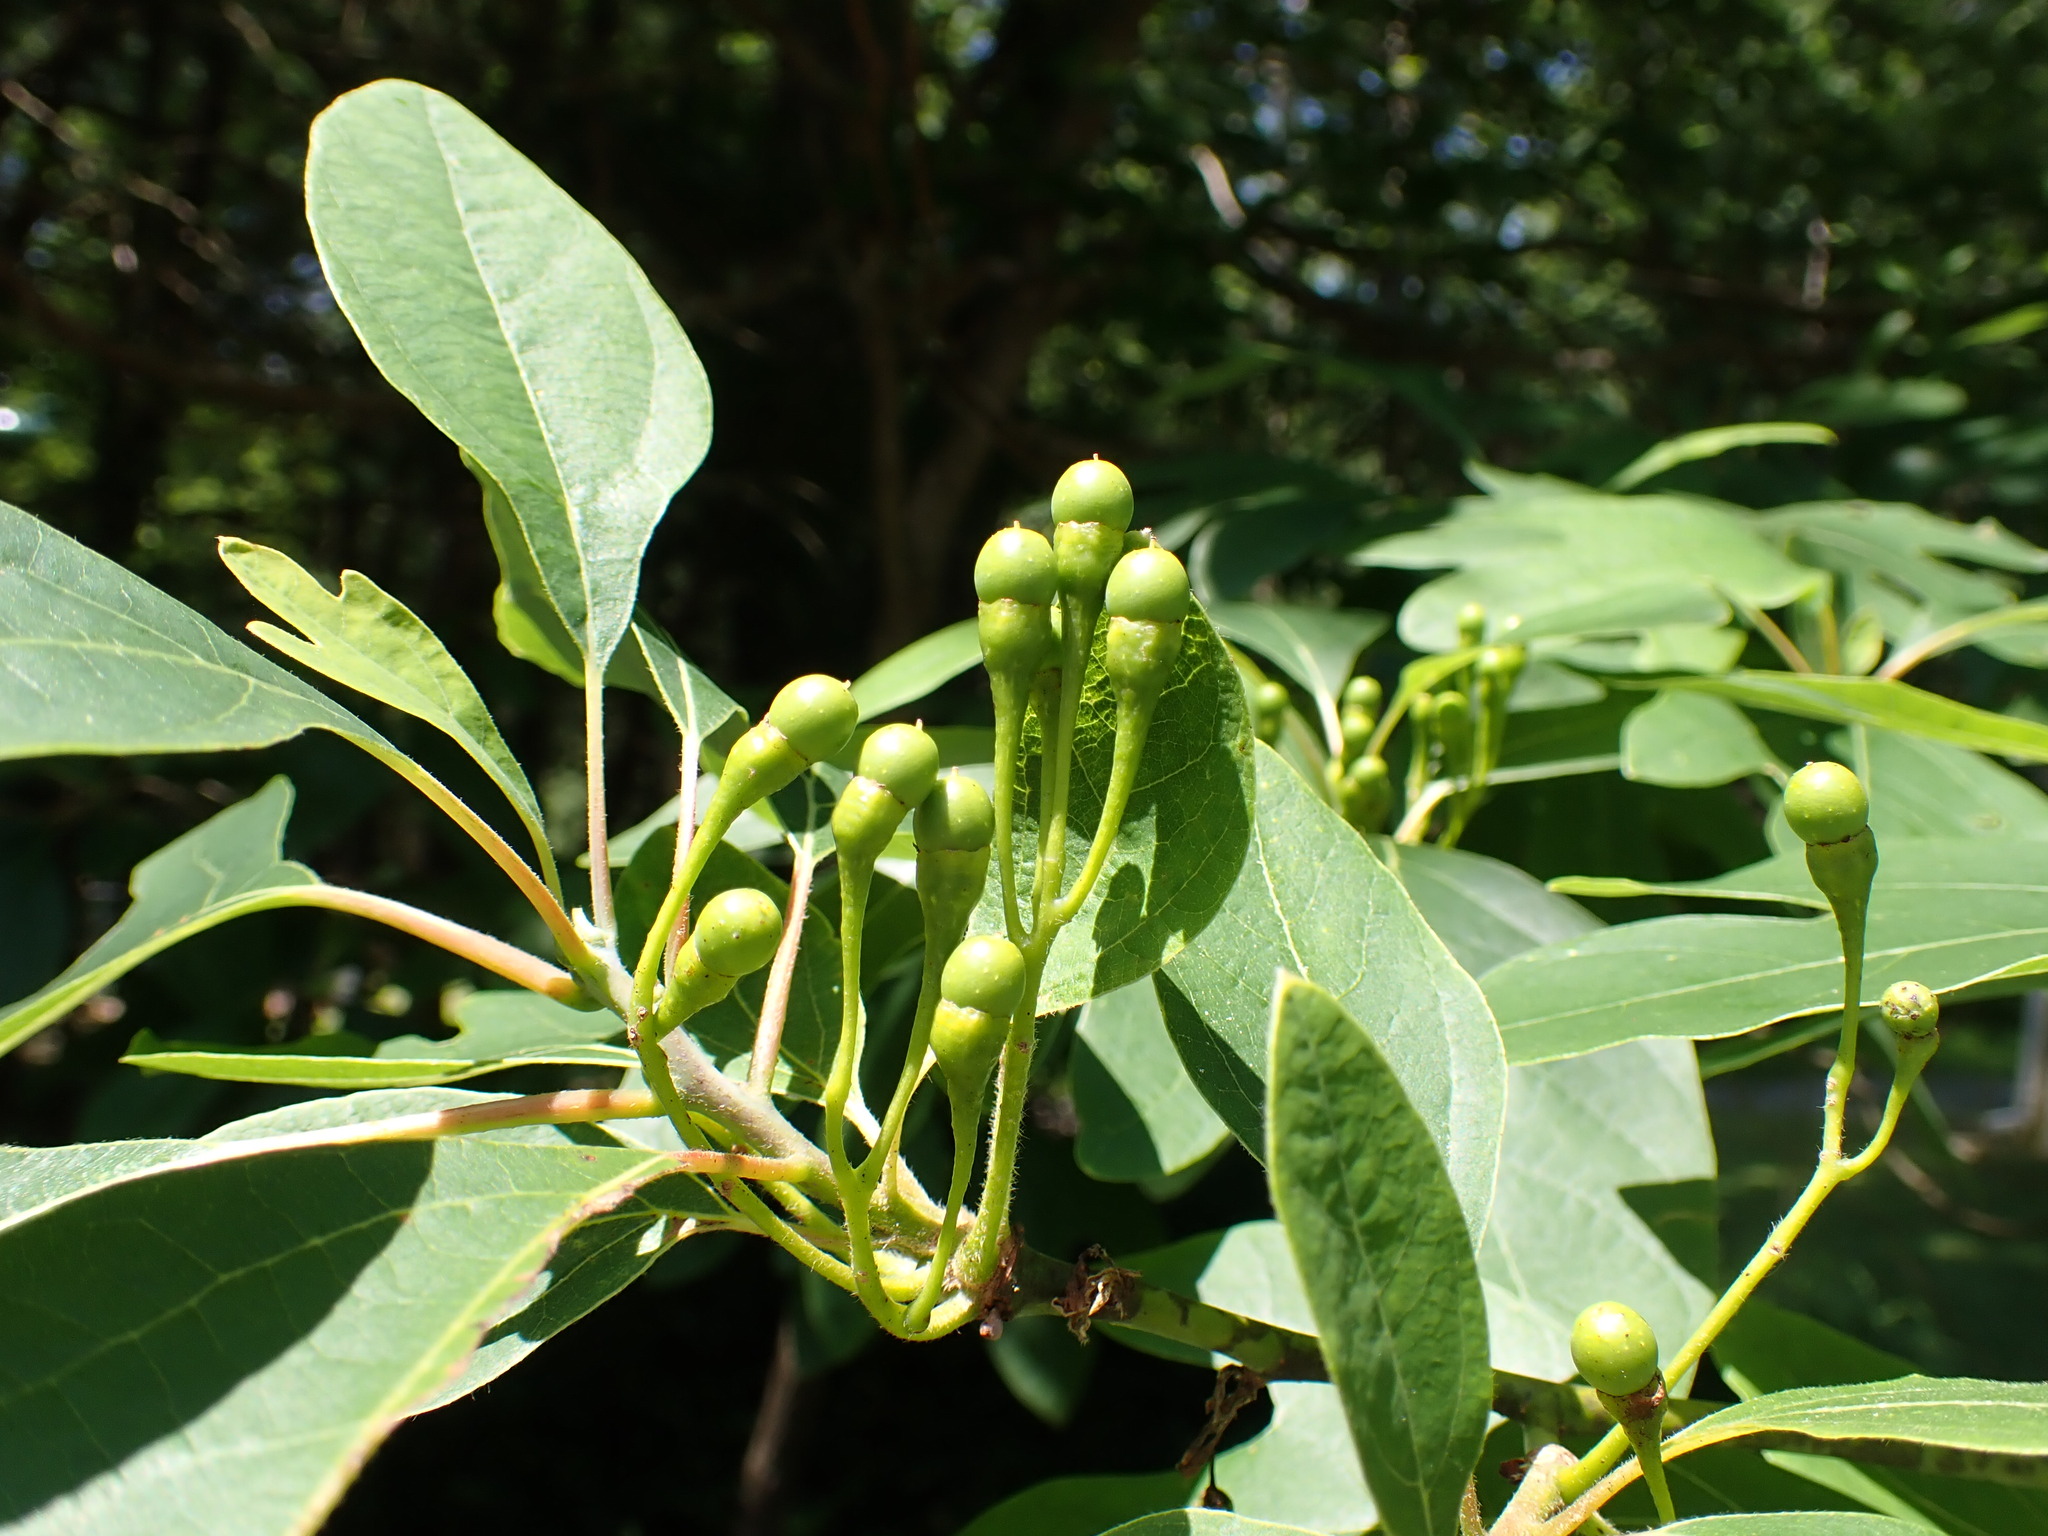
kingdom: Plantae
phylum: Tracheophyta
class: Magnoliopsida
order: Laurales
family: Lauraceae
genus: Sassafras
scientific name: Sassafras albidum
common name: Sassafras
